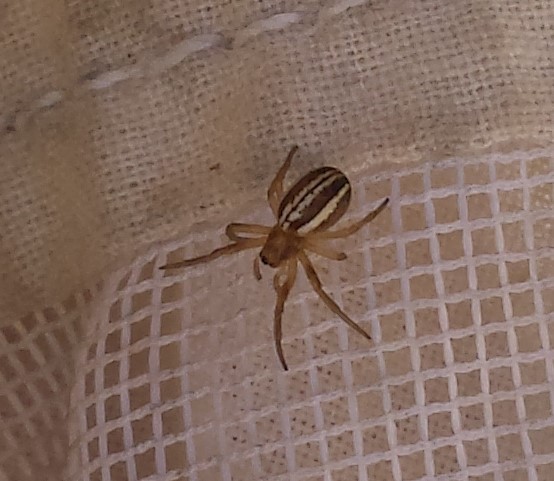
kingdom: Animalia
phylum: Arthropoda
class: Arachnida
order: Araneae
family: Araneidae
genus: Araneus
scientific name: Araneus pratensis
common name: Openfield orbweaver
